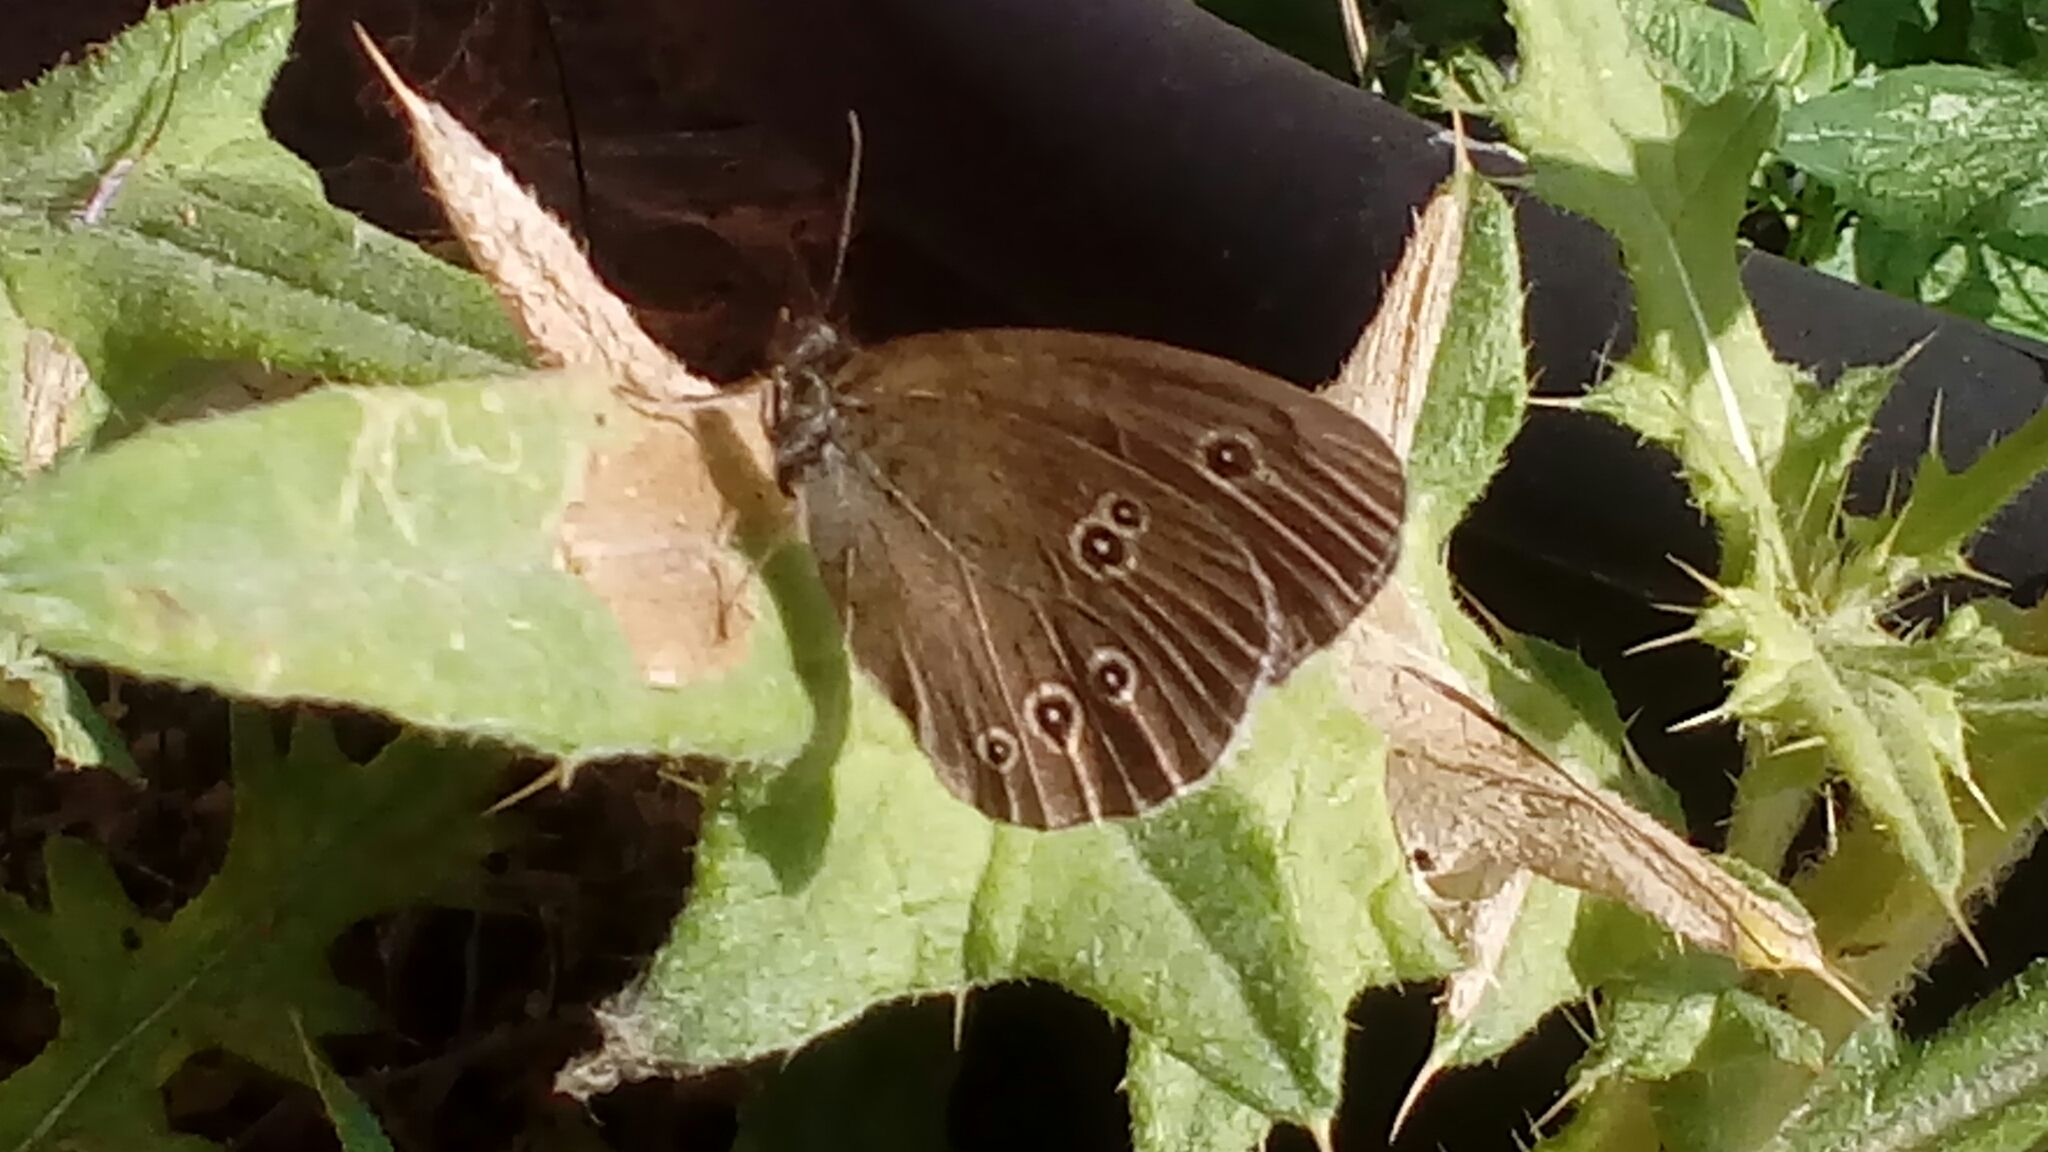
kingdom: Animalia
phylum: Arthropoda
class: Insecta
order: Lepidoptera
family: Nymphalidae
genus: Aphantopus
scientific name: Aphantopus hyperantus
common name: Ringlet
